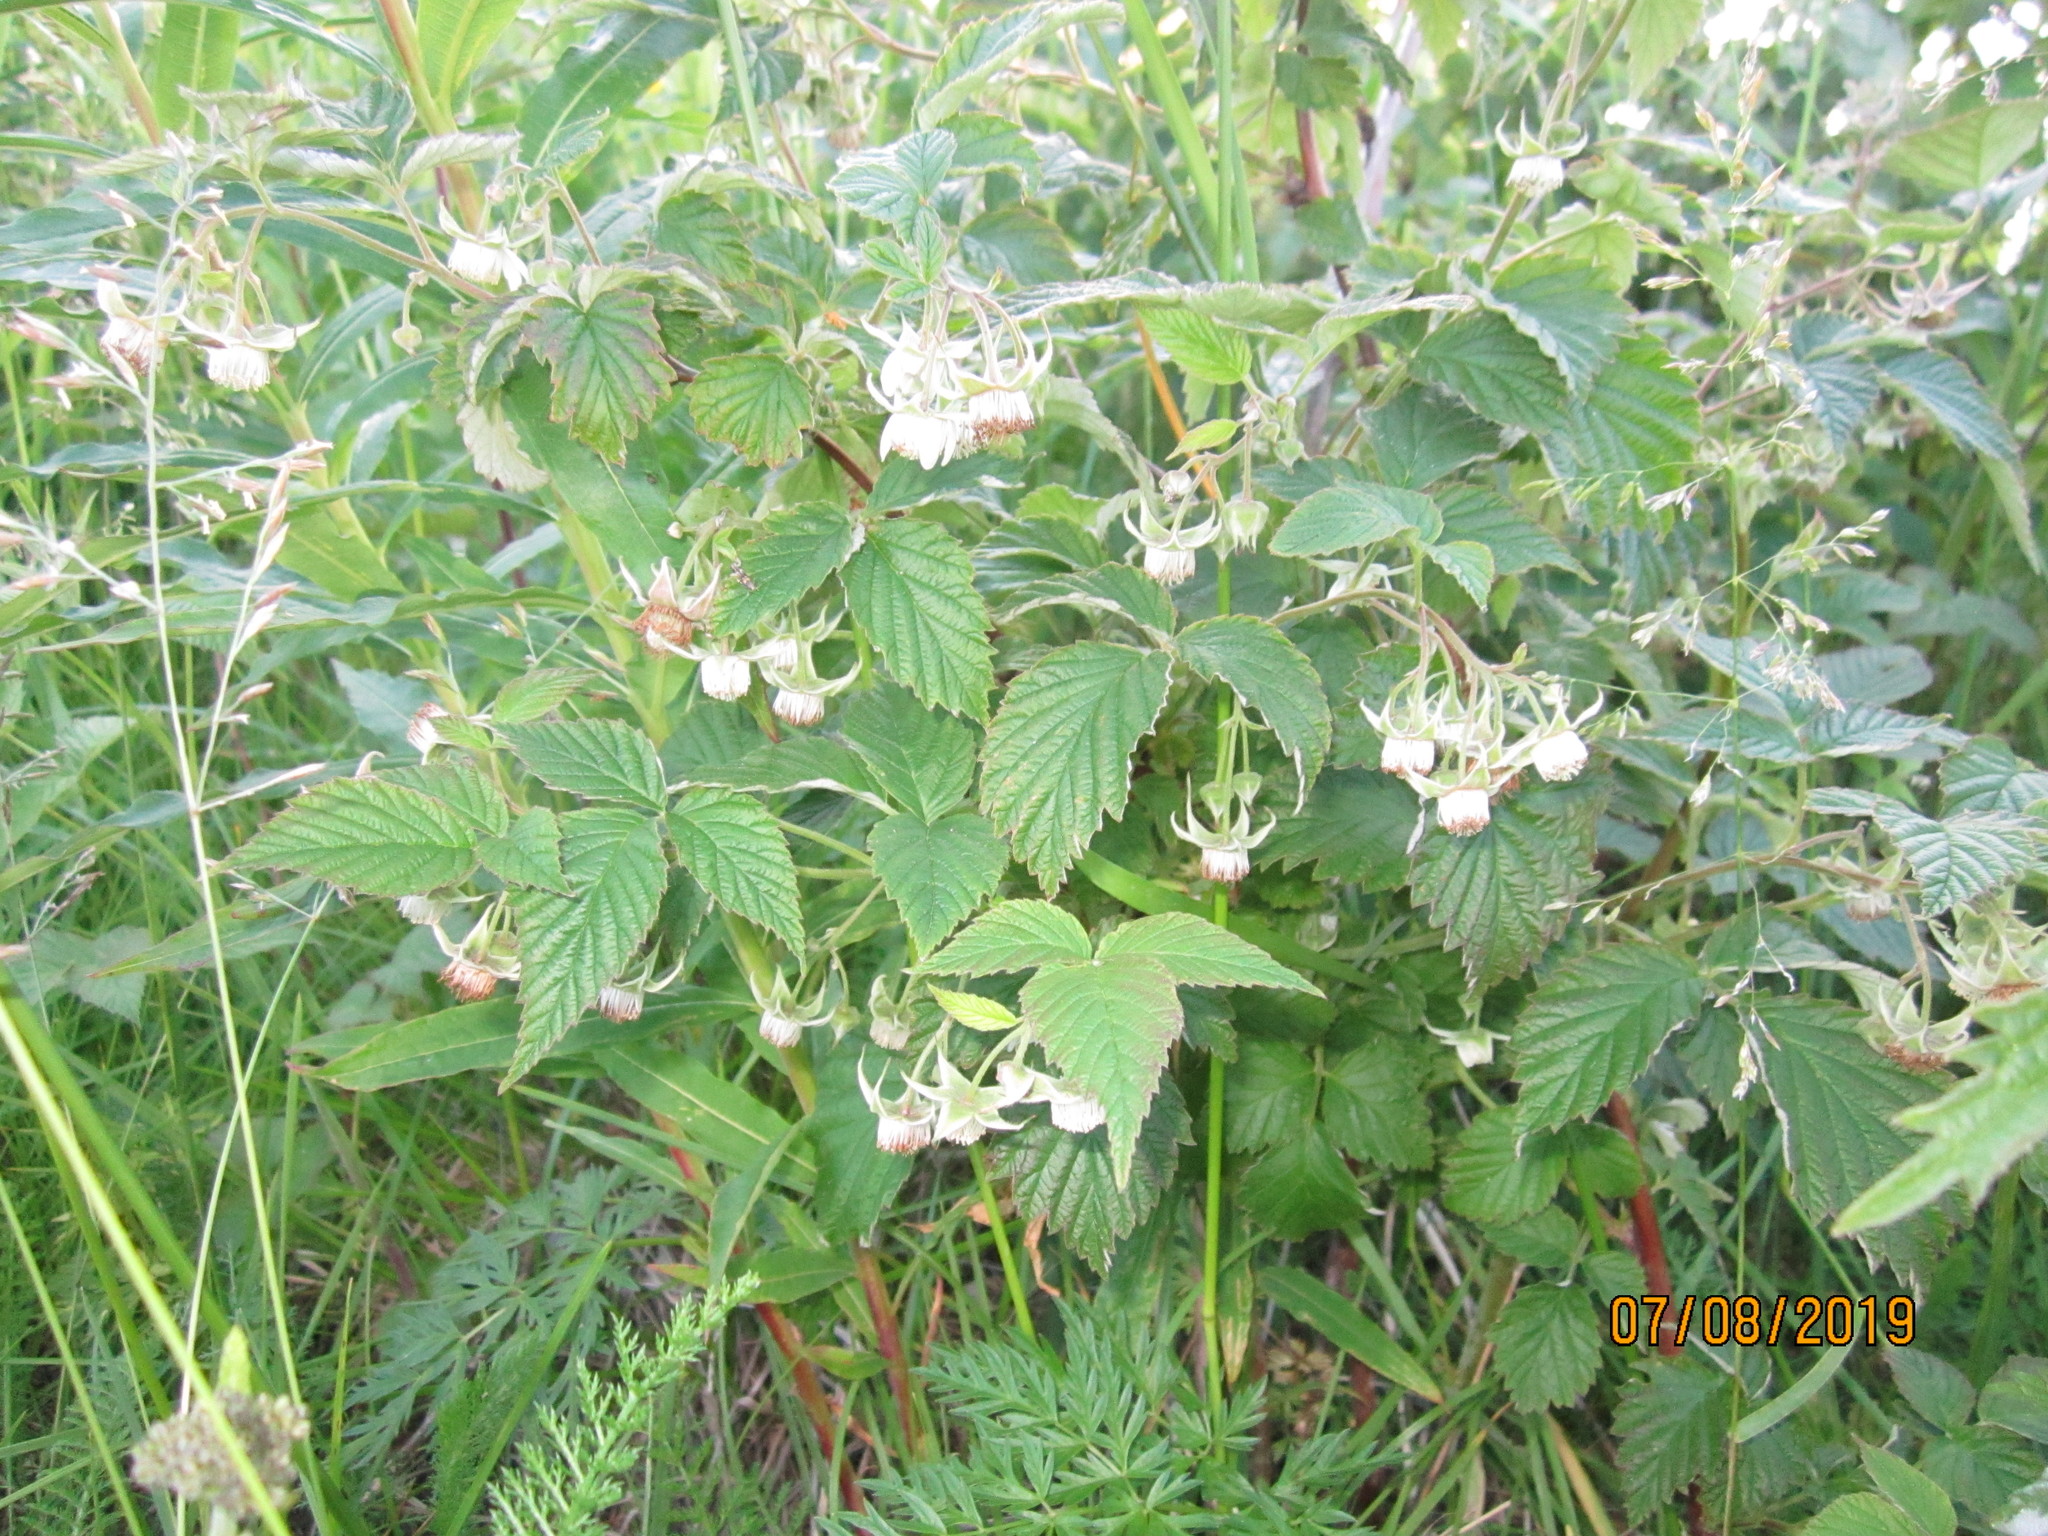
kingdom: Plantae
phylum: Tracheophyta
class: Magnoliopsida
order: Rosales
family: Rosaceae
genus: Rubus
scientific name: Rubus idaeus
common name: Raspberry
